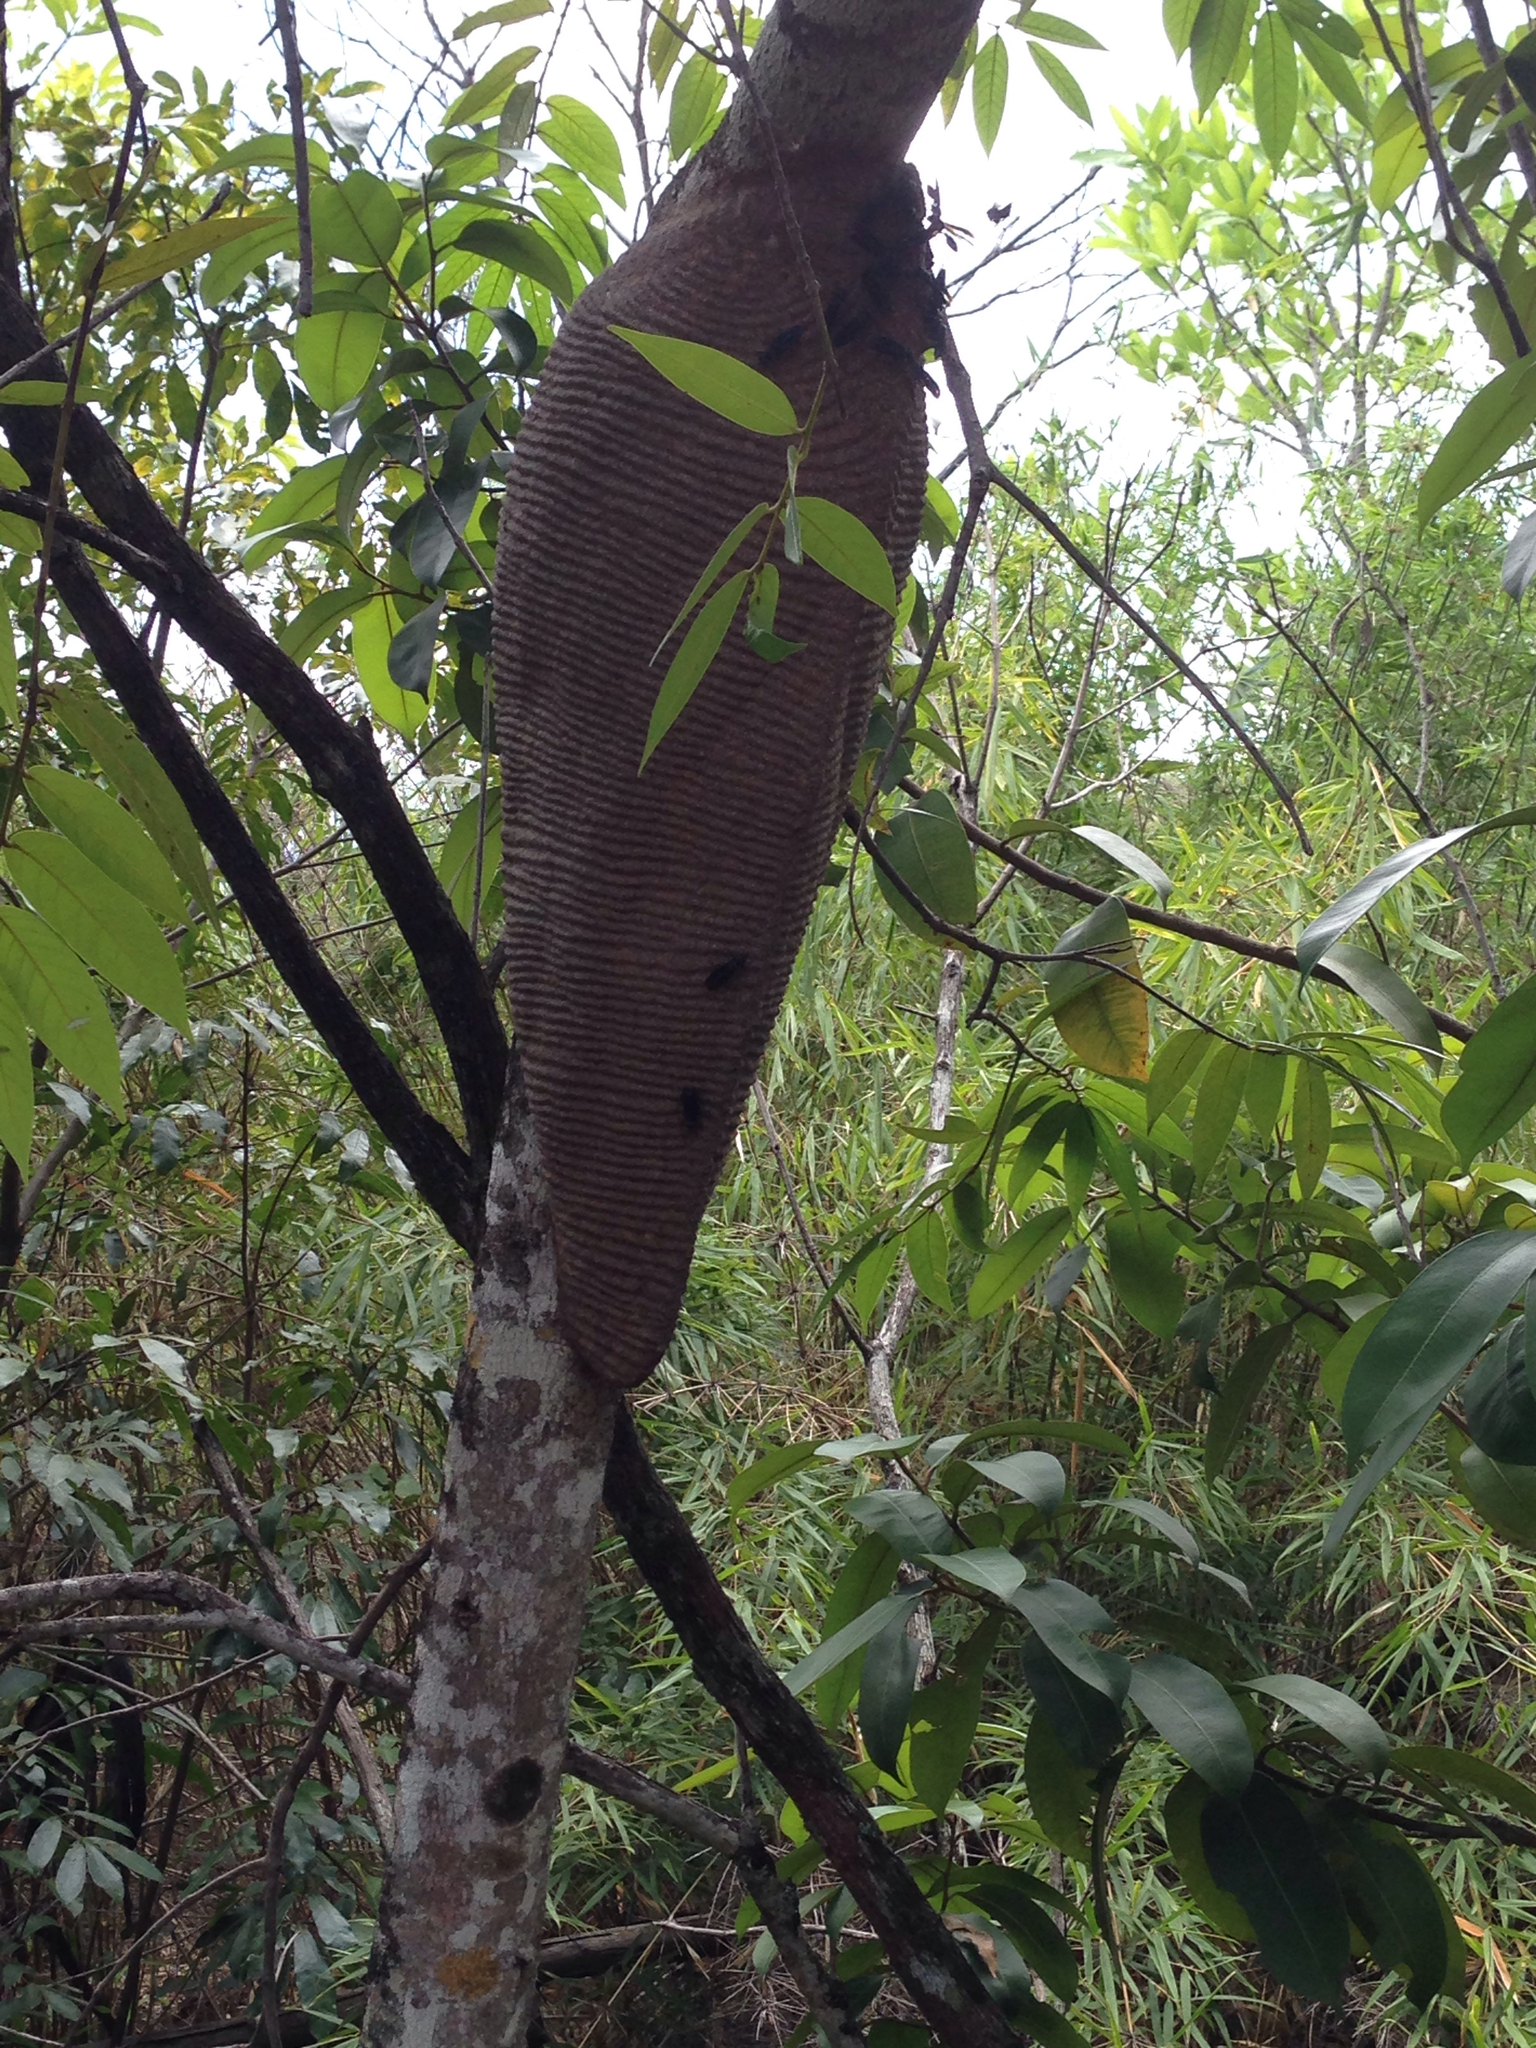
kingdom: Animalia
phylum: Arthropoda
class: Insecta
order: Hymenoptera
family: Vespidae
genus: Synoeca
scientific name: Synoeca
